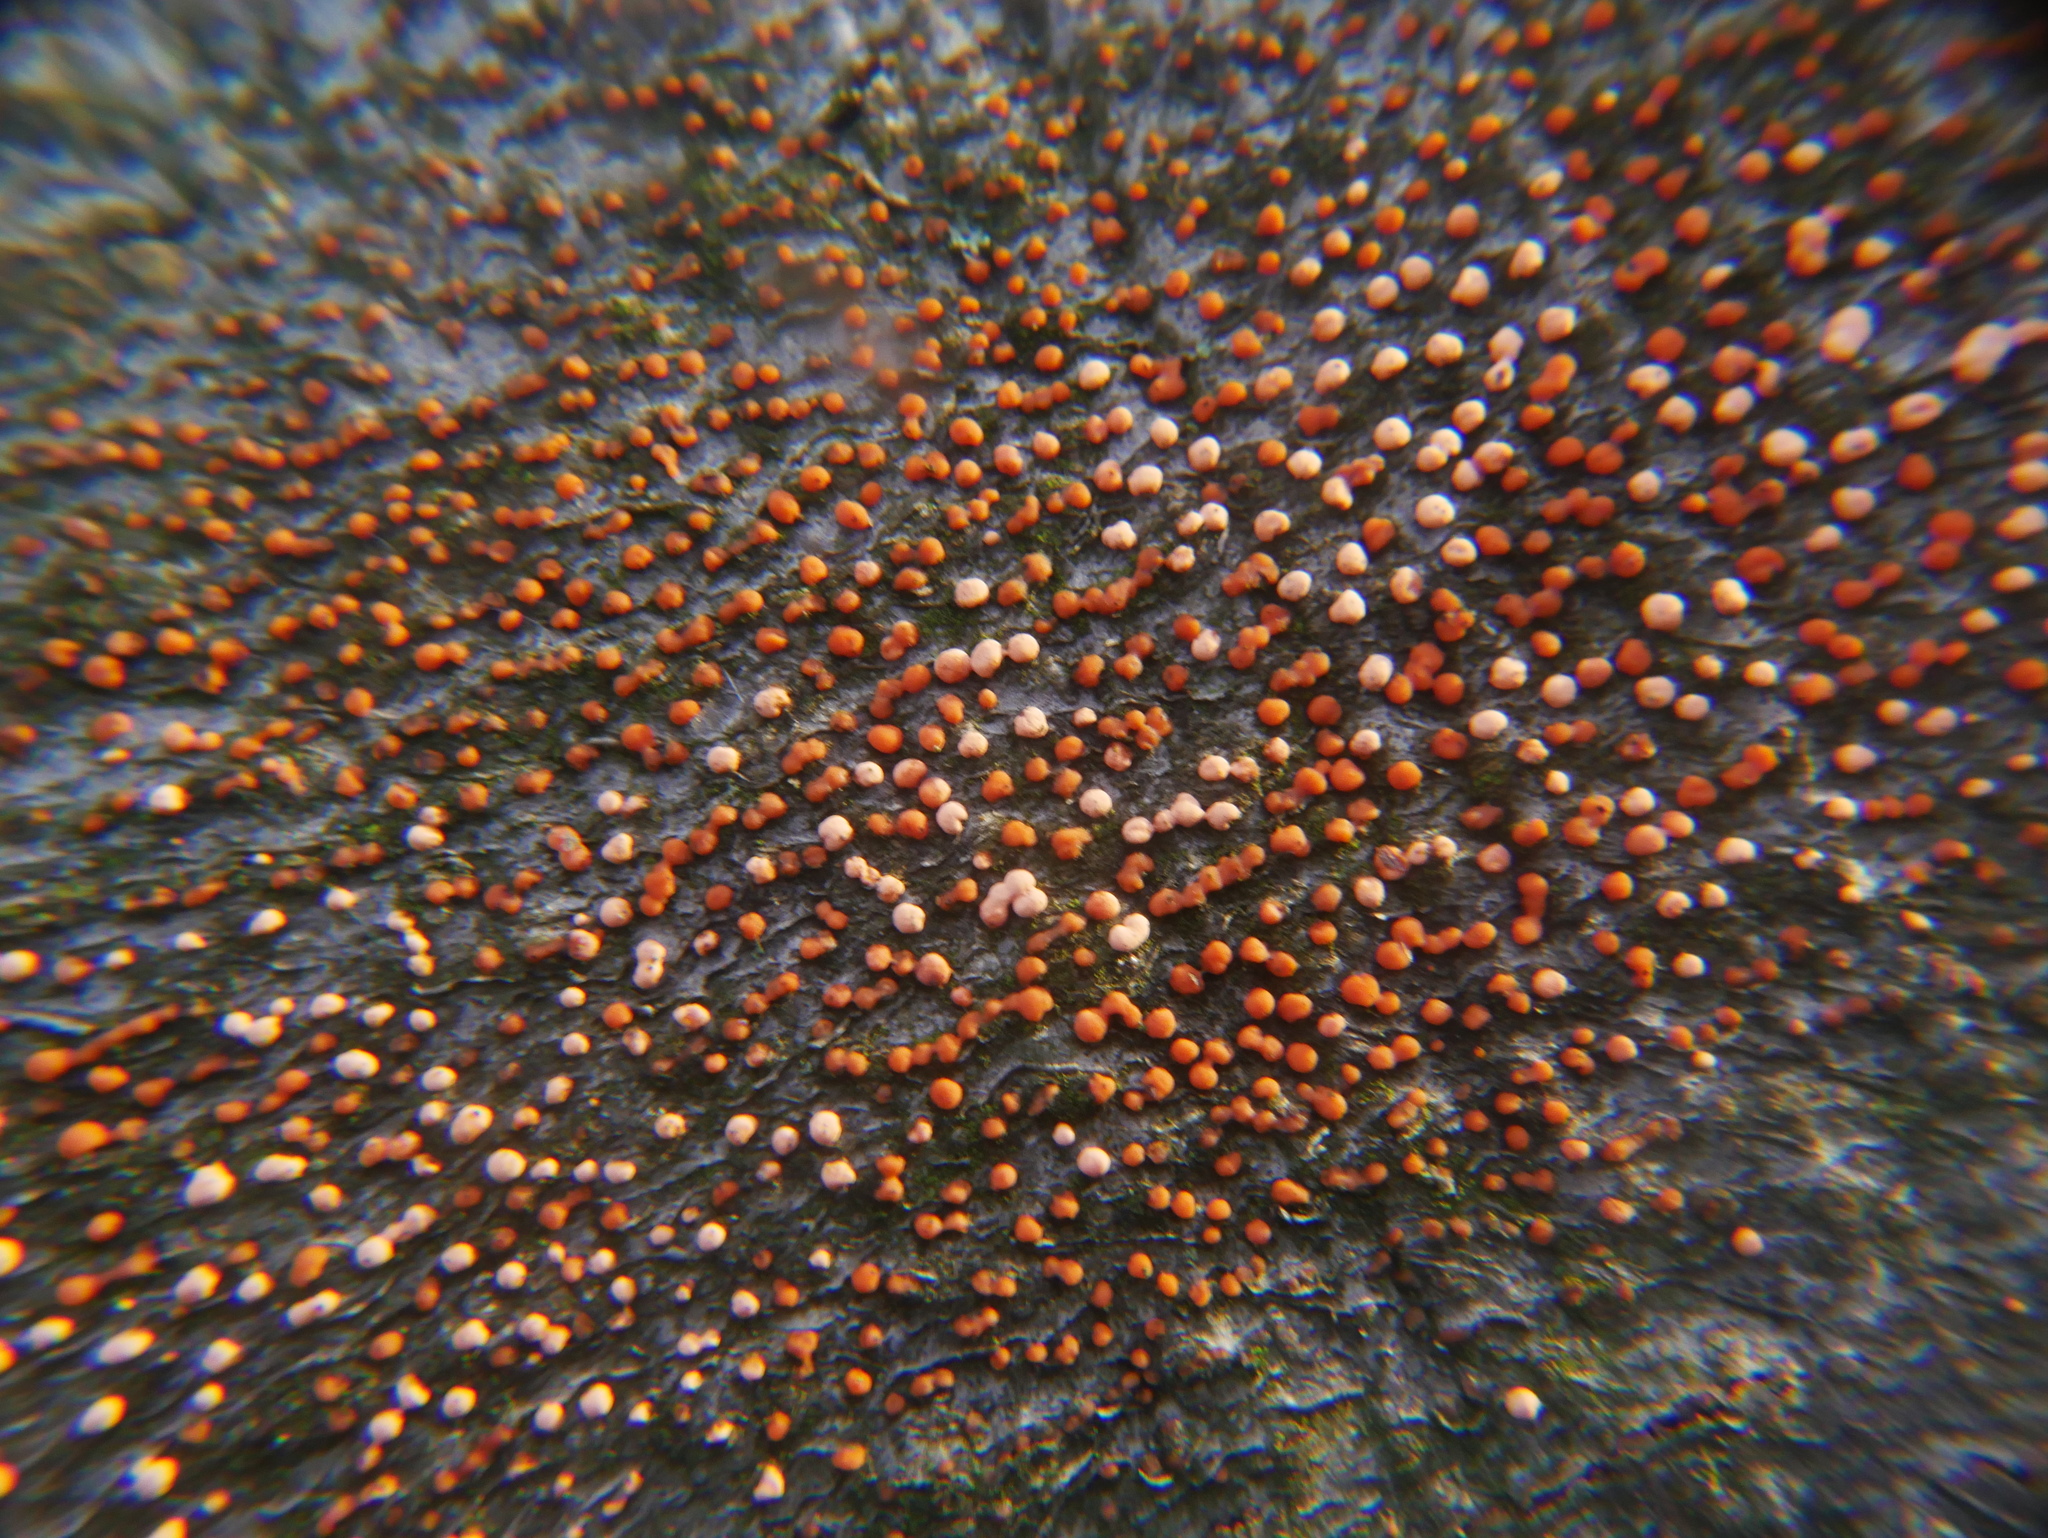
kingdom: Fungi
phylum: Ascomycota
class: Sordariomycetes
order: Hypocreales
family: Nectriaceae
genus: Nectria
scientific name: Nectria cinnabarina
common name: Coral spot
